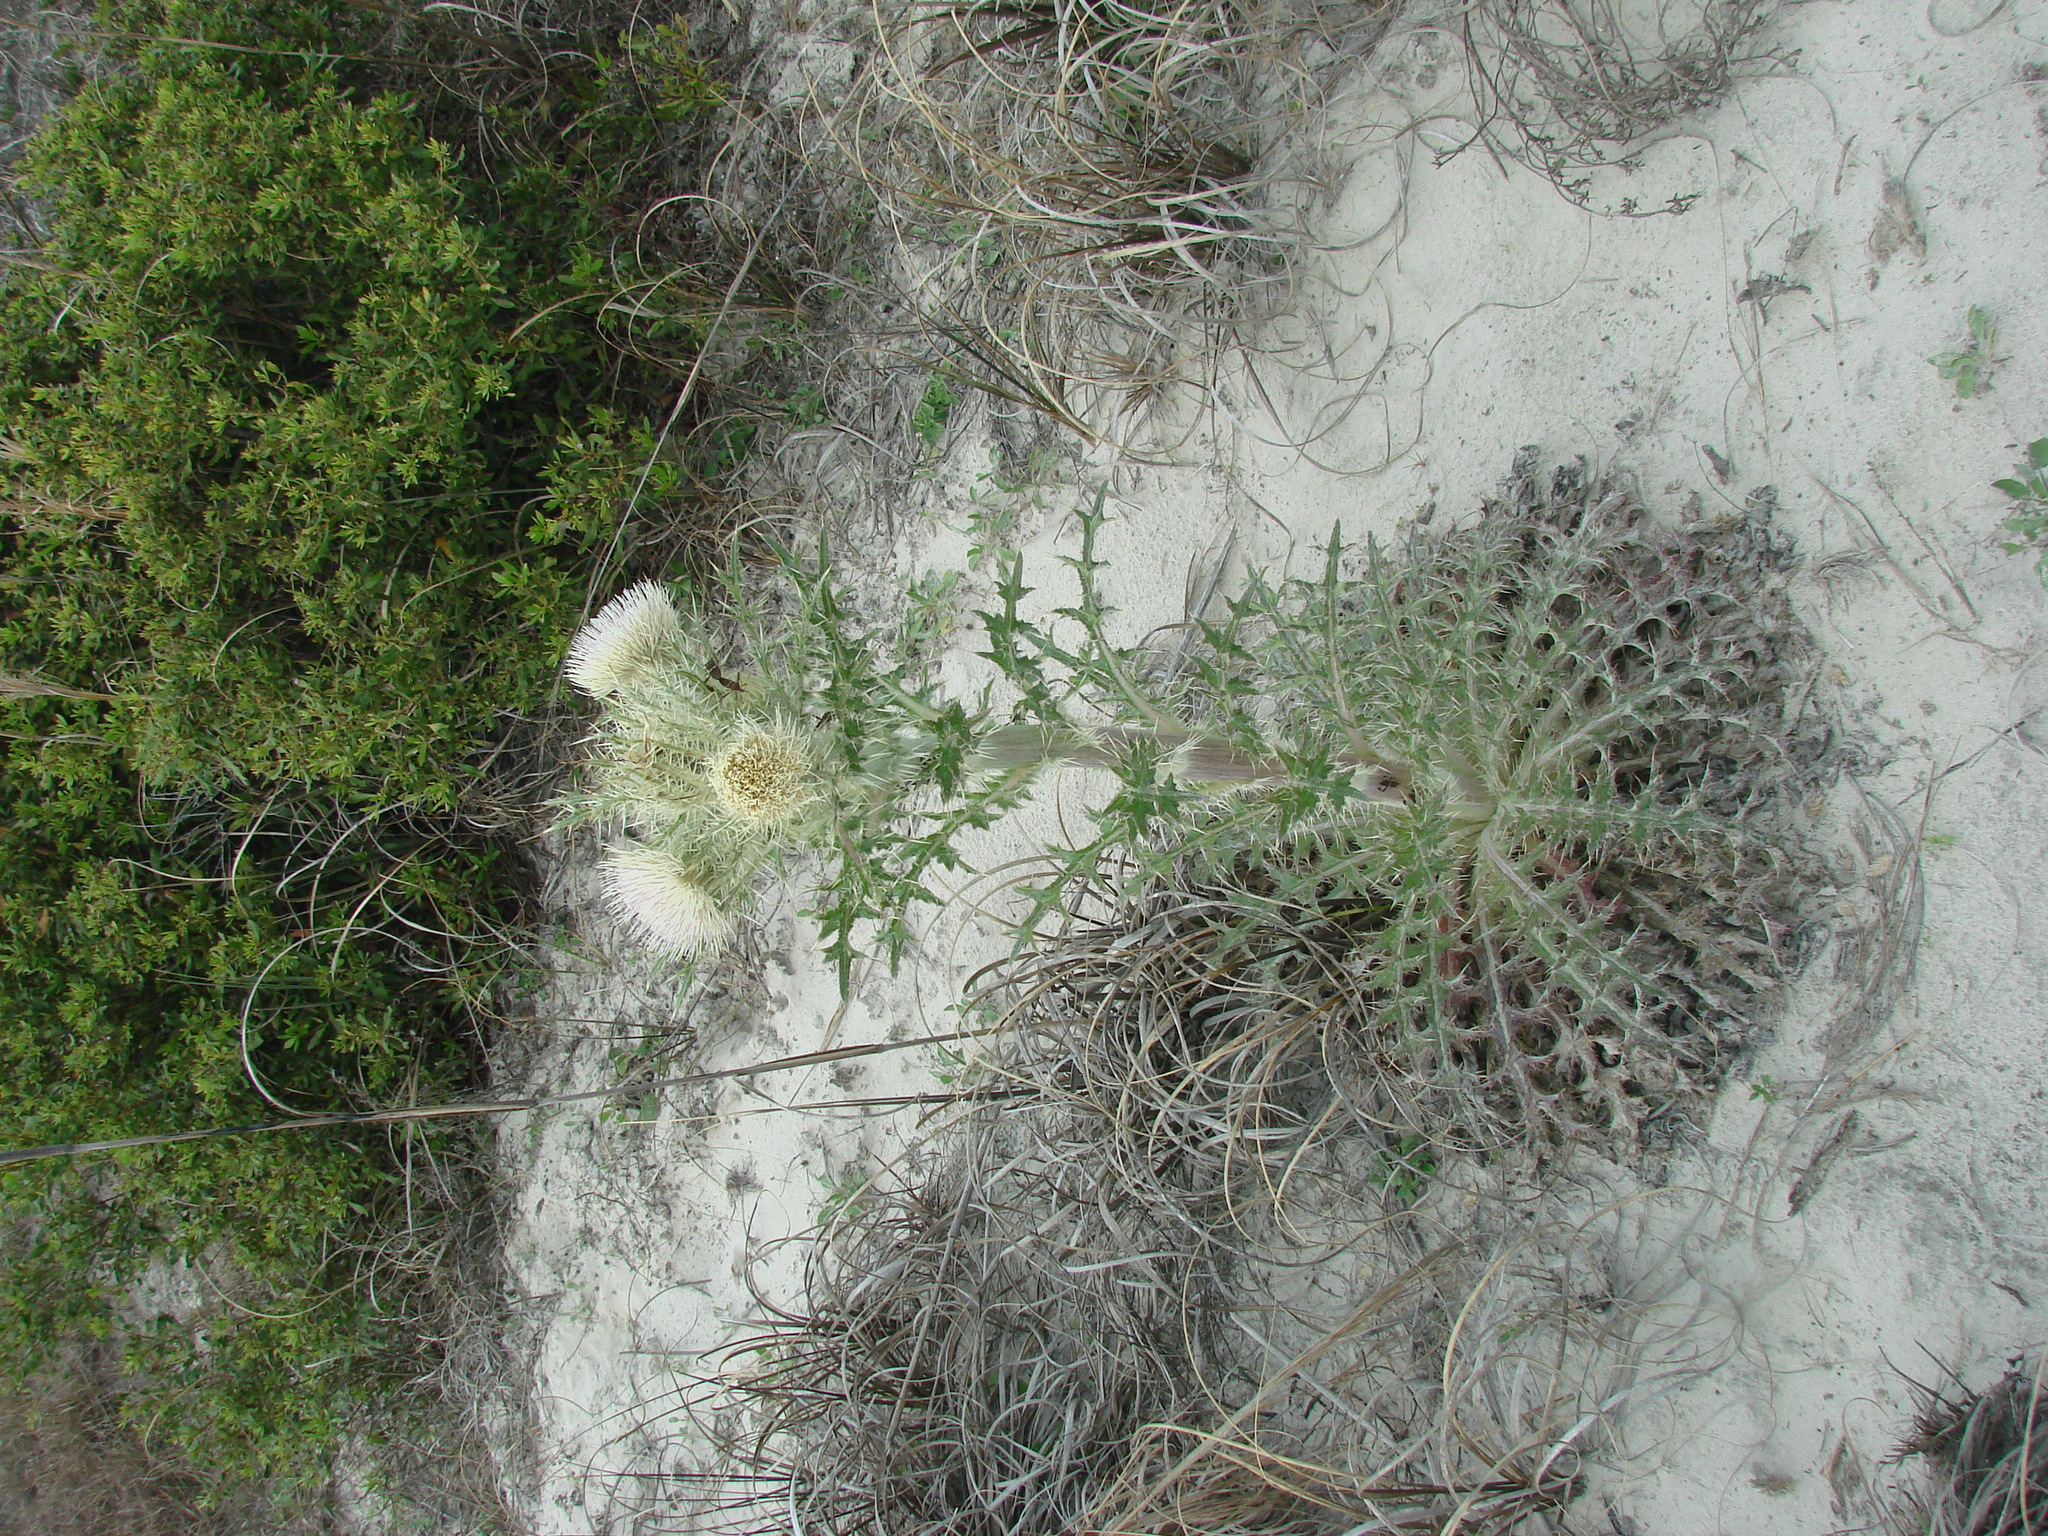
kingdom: Plantae
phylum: Tracheophyta
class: Magnoliopsida
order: Asterales
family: Asteraceae
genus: Cirsium
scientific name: Cirsium horridulum
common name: Bristly thistle
